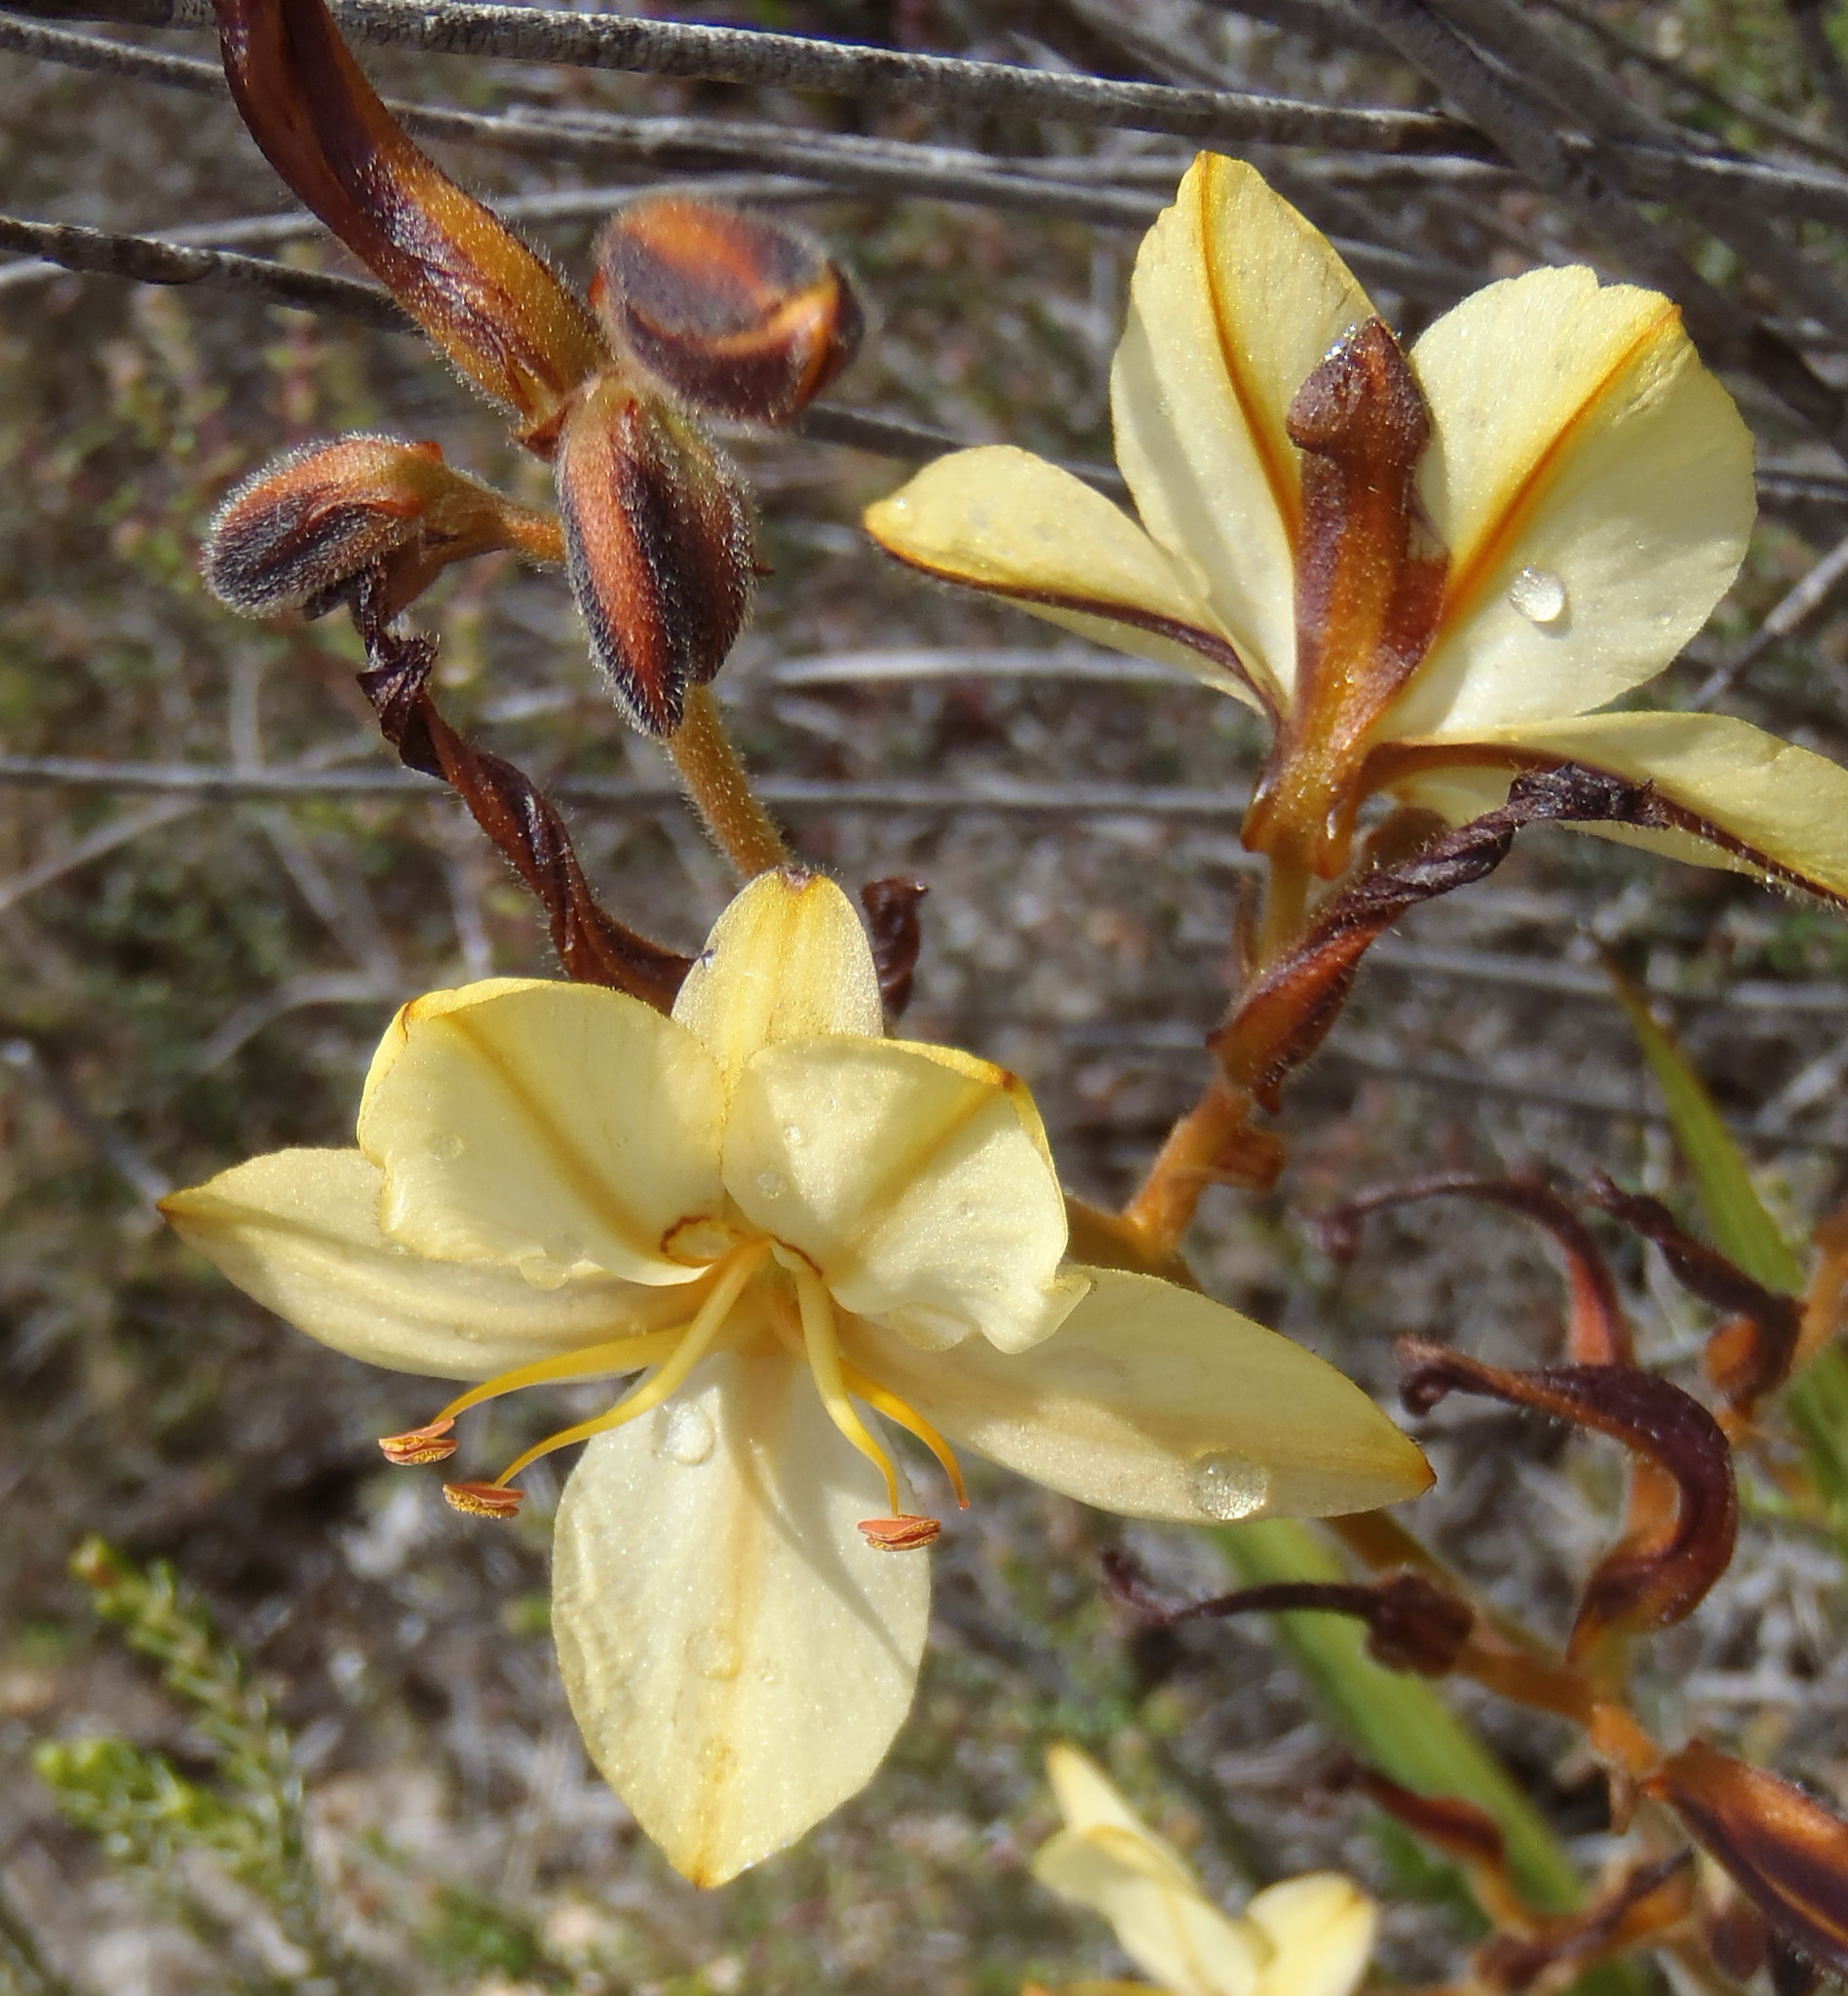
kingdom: Plantae
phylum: Tracheophyta
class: Liliopsida
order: Commelinales
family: Haemodoraceae
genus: Wachendorfia
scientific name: Wachendorfia paniculata
